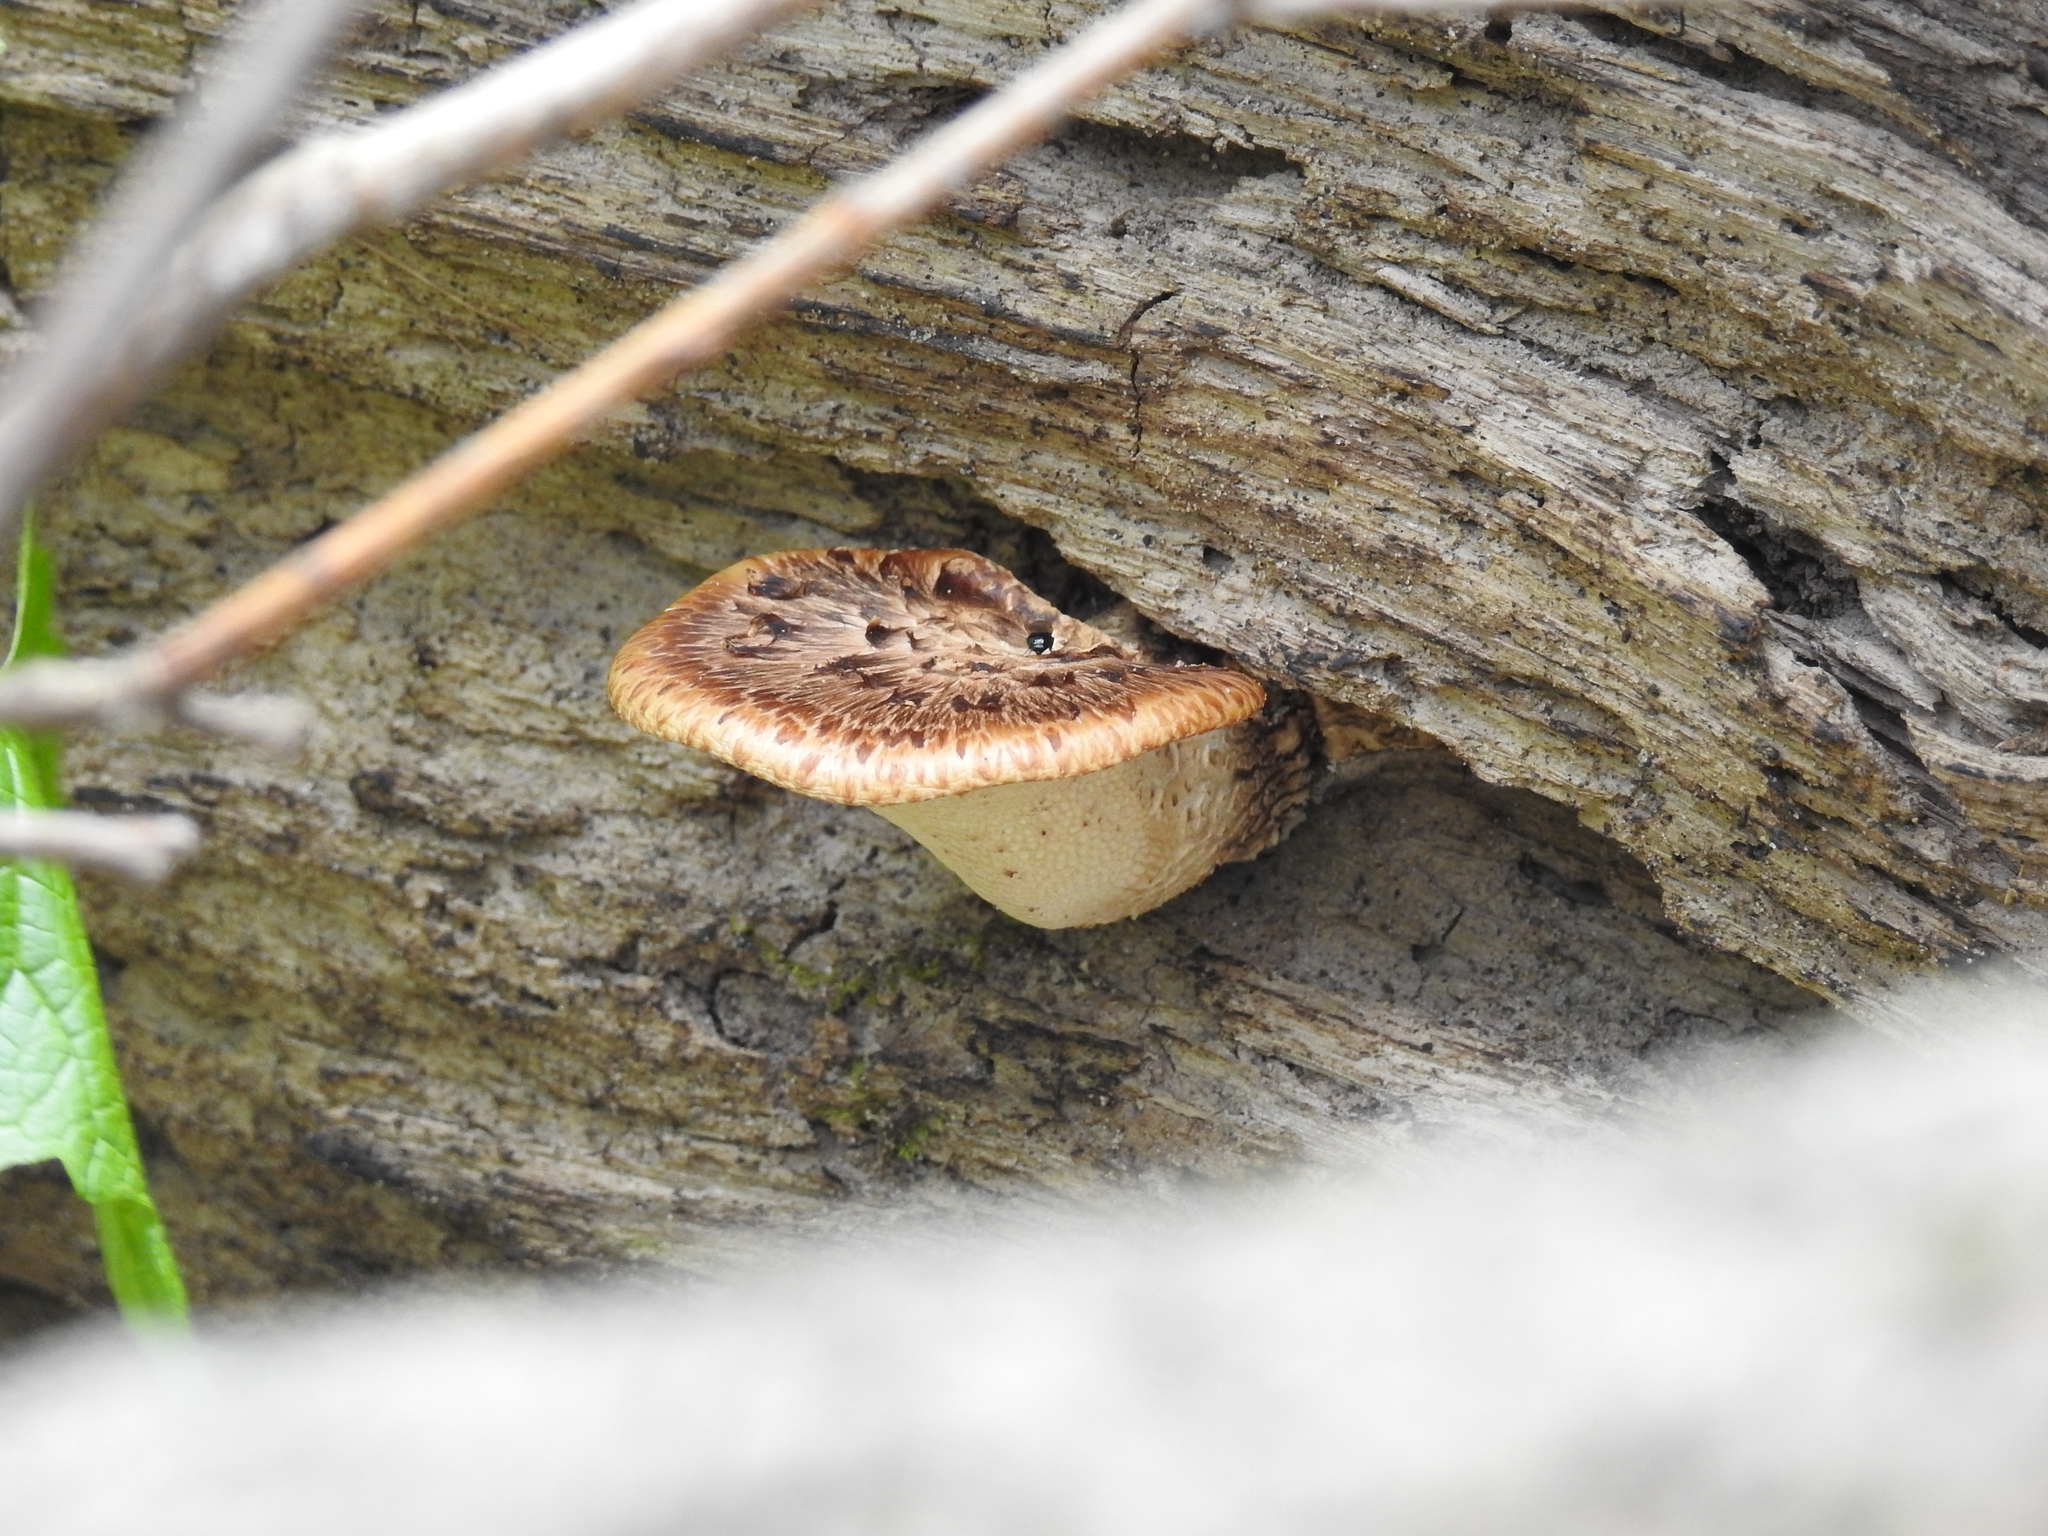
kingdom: Fungi
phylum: Basidiomycota
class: Agaricomycetes
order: Polyporales
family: Polyporaceae
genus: Cerioporus
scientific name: Cerioporus squamosus
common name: Dryad's saddle
